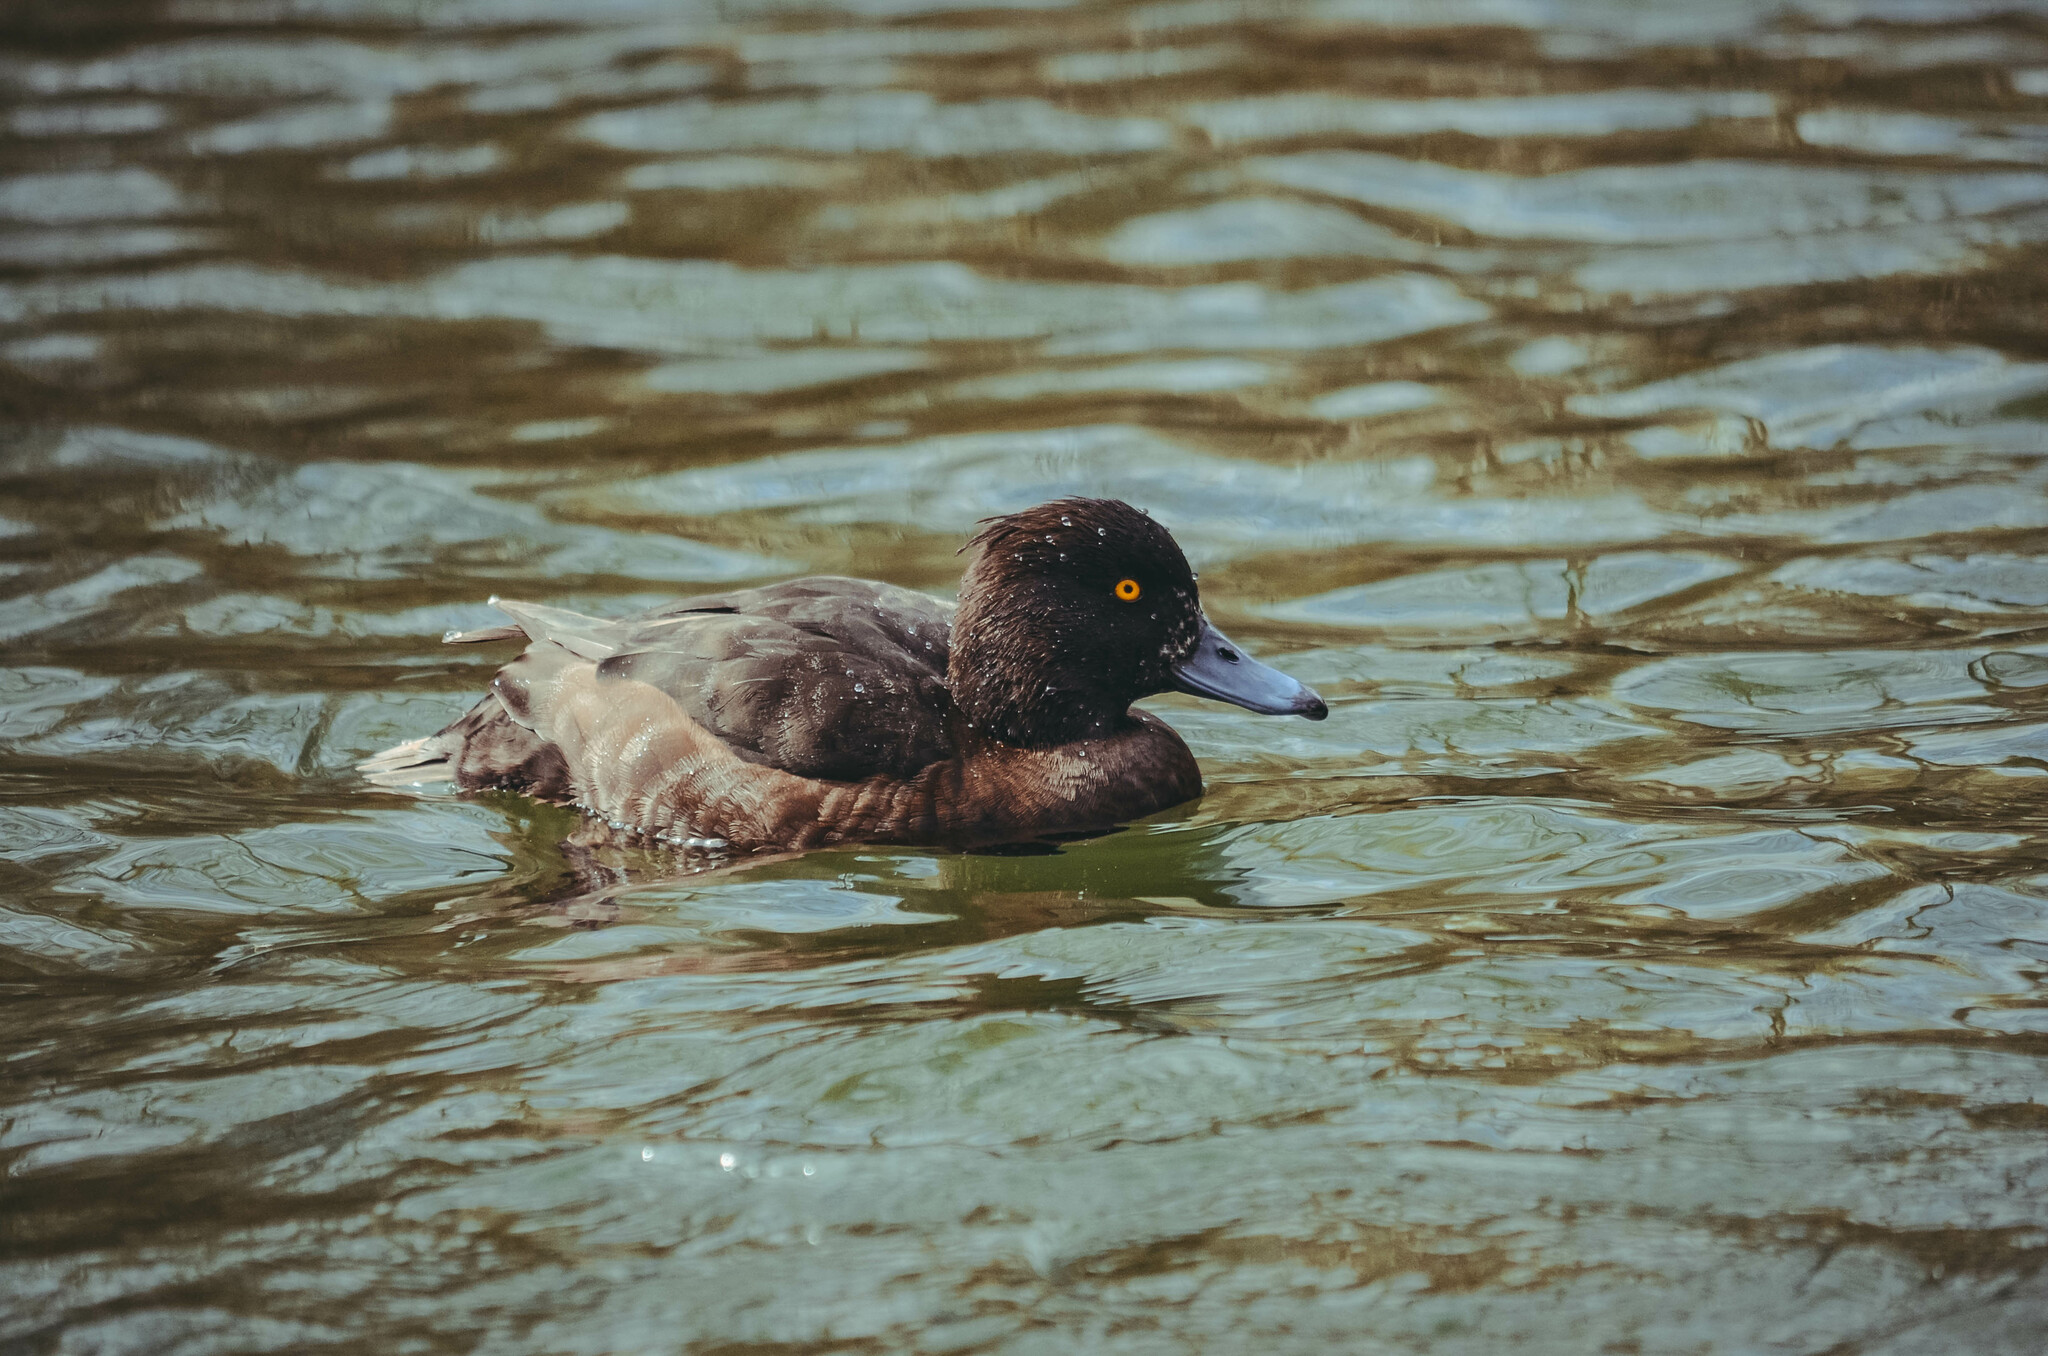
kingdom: Animalia
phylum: Chordata
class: Aves
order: Anseriformes
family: Anatidae
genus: Aythya
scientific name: Aythya fuligula
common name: Tufted duck
